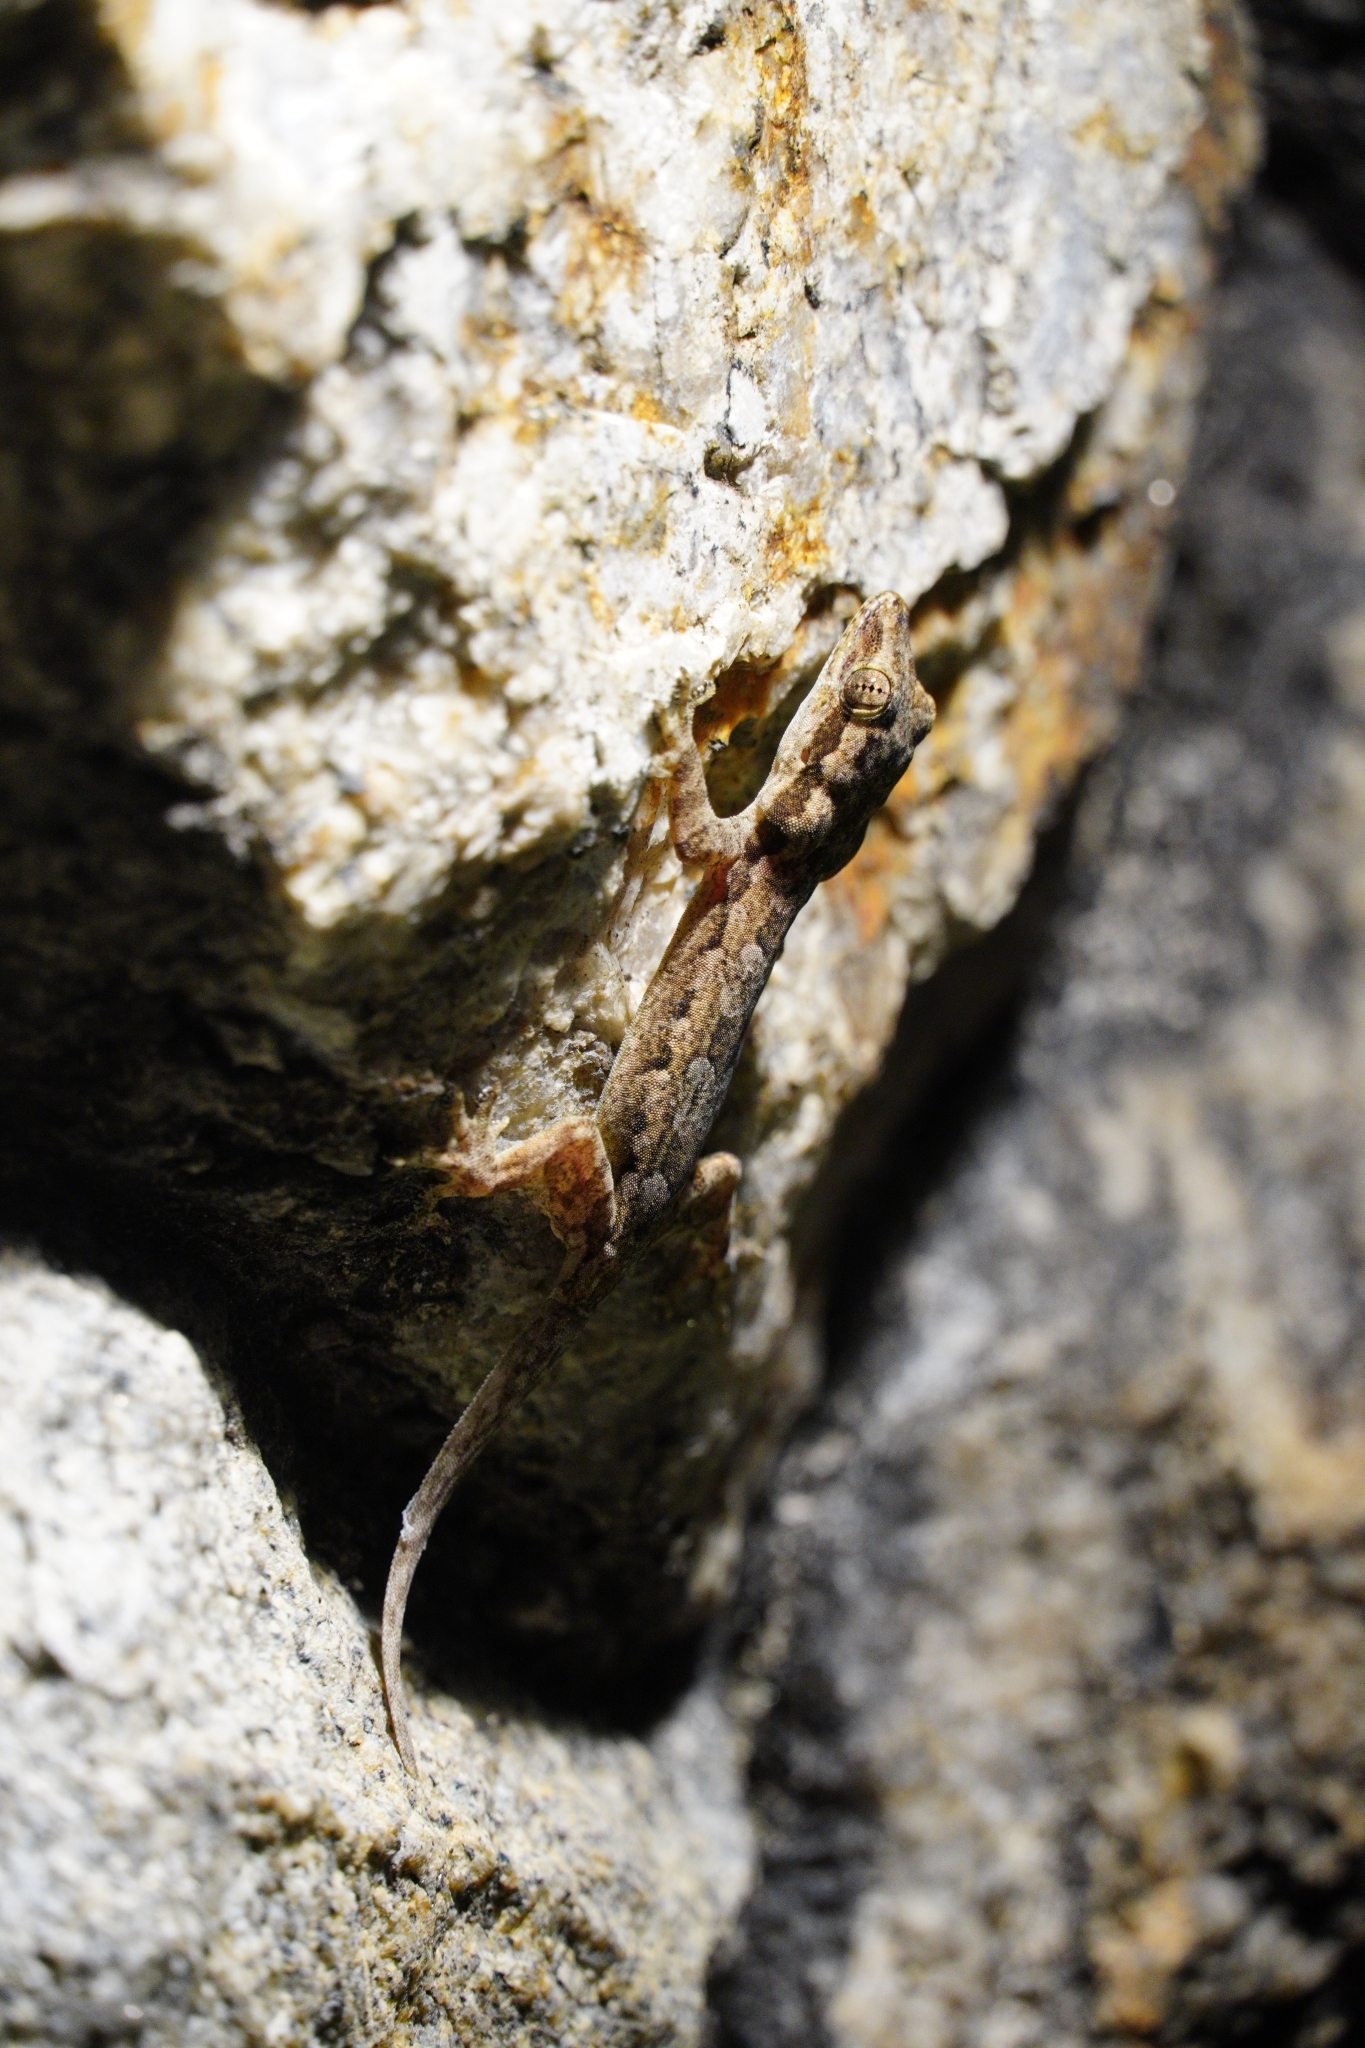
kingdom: Animalia
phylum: Chordata
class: Squamata
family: Gekkonidae
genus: Hemidactylus
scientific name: Hemidactylus platyurus
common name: Flat-tailed house gecko
